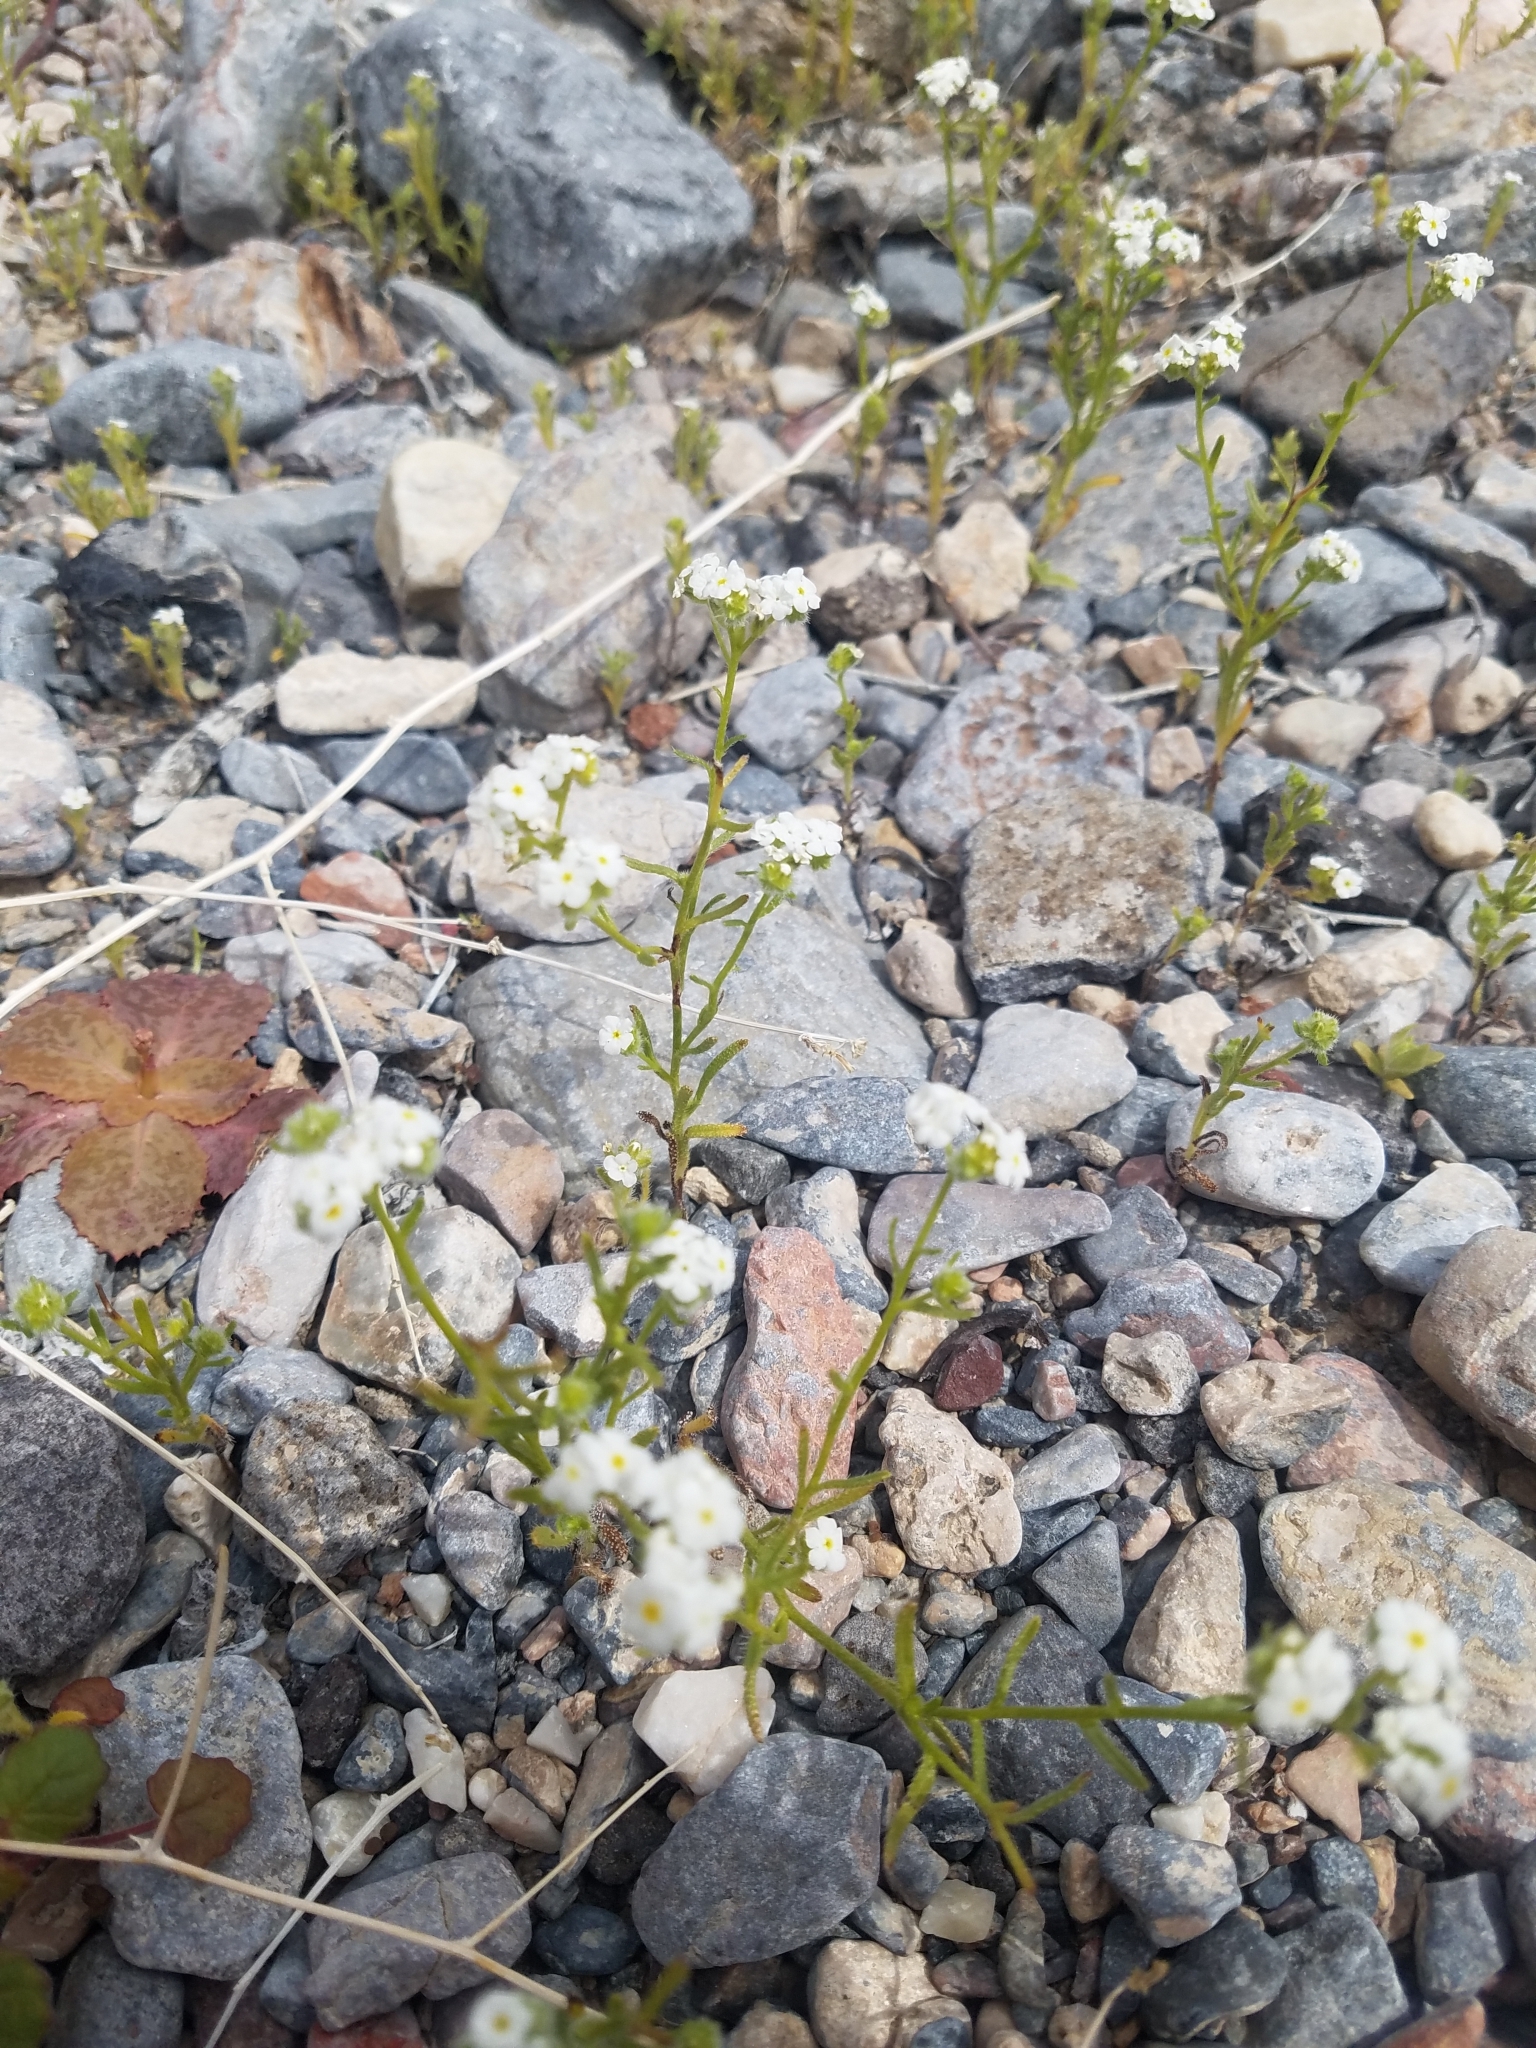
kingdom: Plantae
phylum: Tracheophyta
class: Magnoliopsida
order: Boraginales
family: Boraginaceae
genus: Cryptantha
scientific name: Cryptantha utahensis
